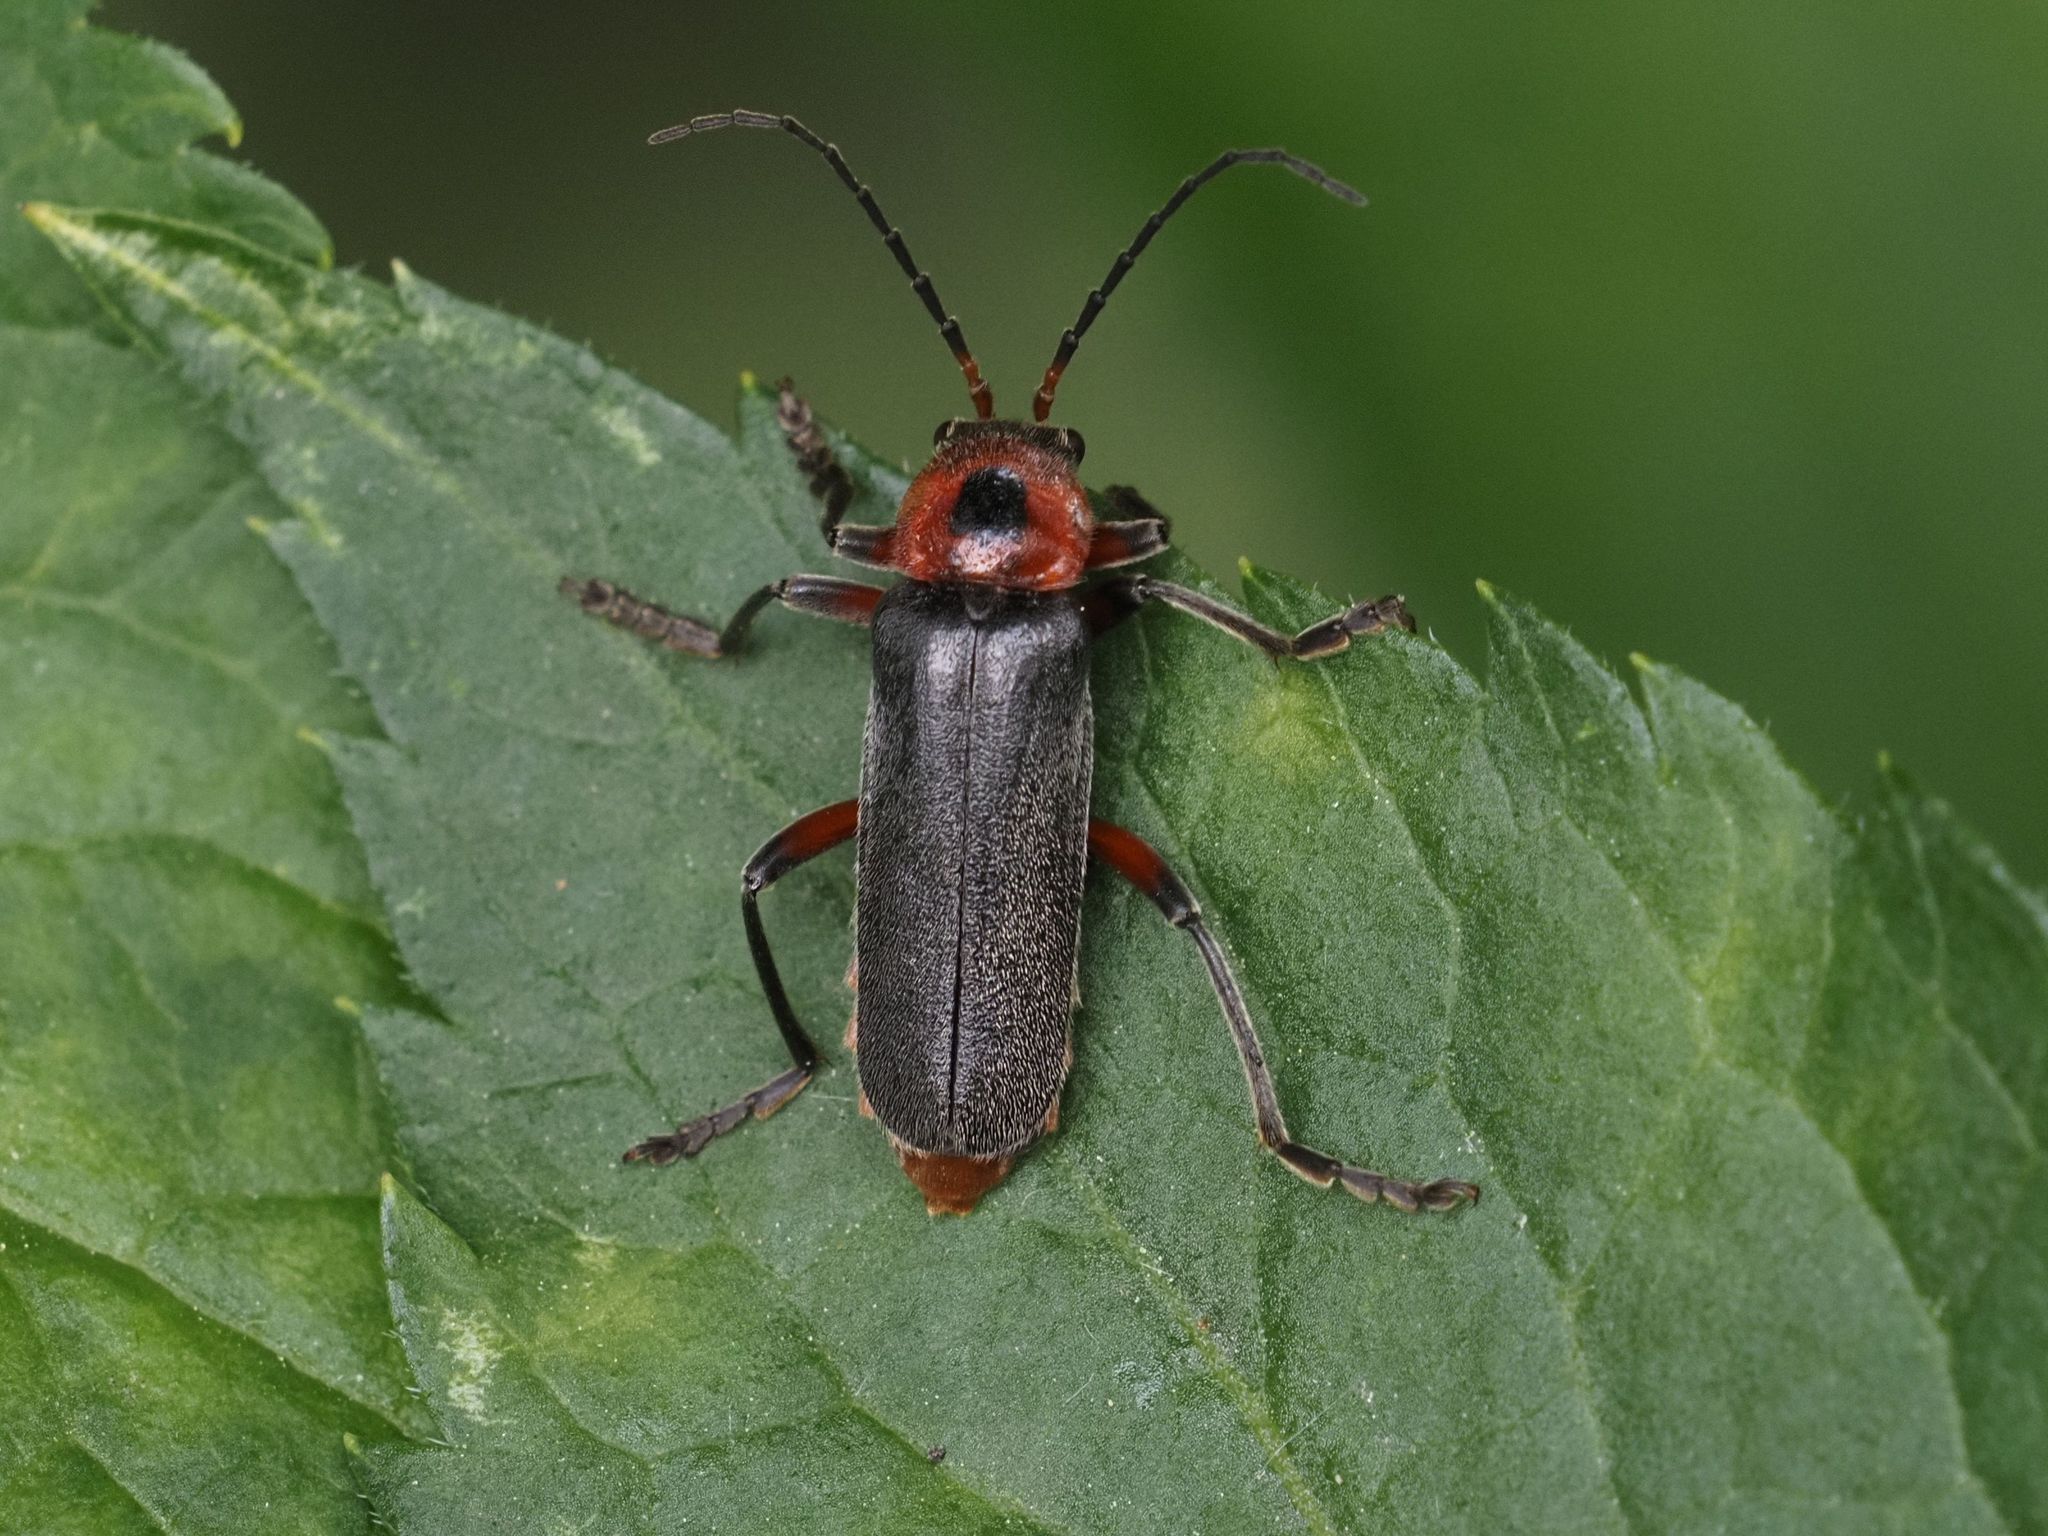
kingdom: Animalia
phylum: Arthropoda
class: Insecta
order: Coleoptera
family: Cantharidae
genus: Cantharis
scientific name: Cantharis rustica
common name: Soldier beetle
